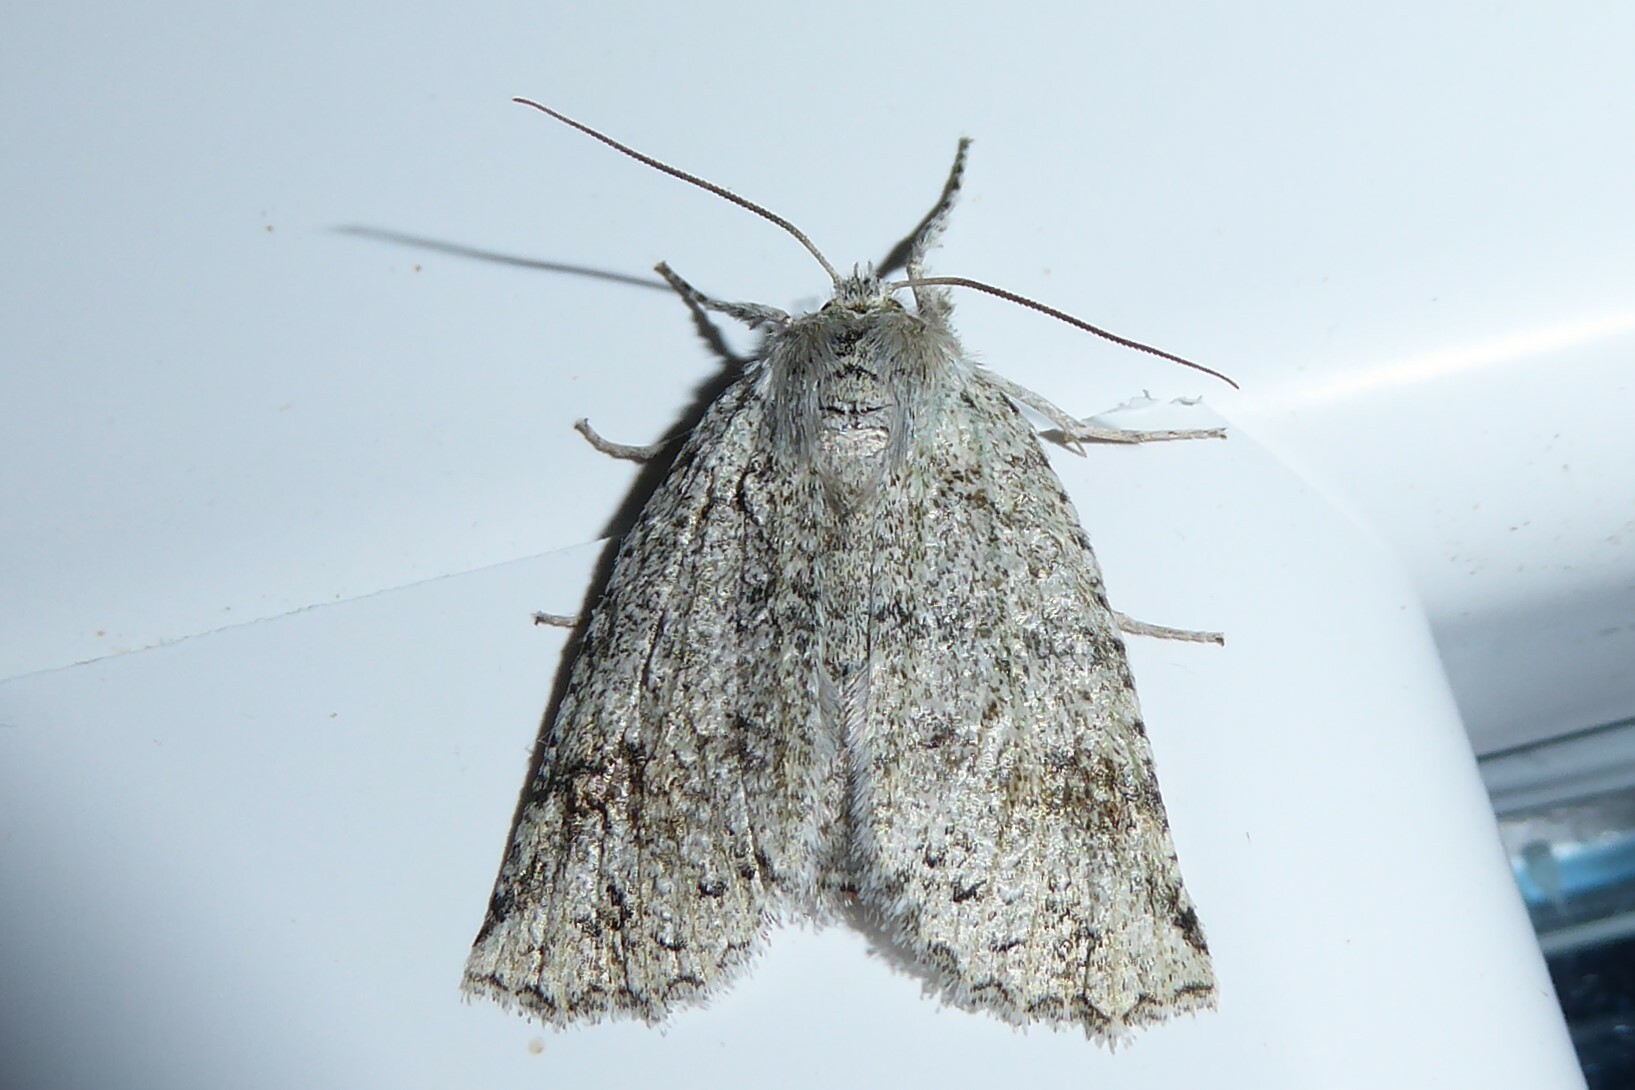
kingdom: Animalia
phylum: Arthropoda
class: Insecta
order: Lepidoptera
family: Geometridae
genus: Declana
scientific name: Declana floccosa
